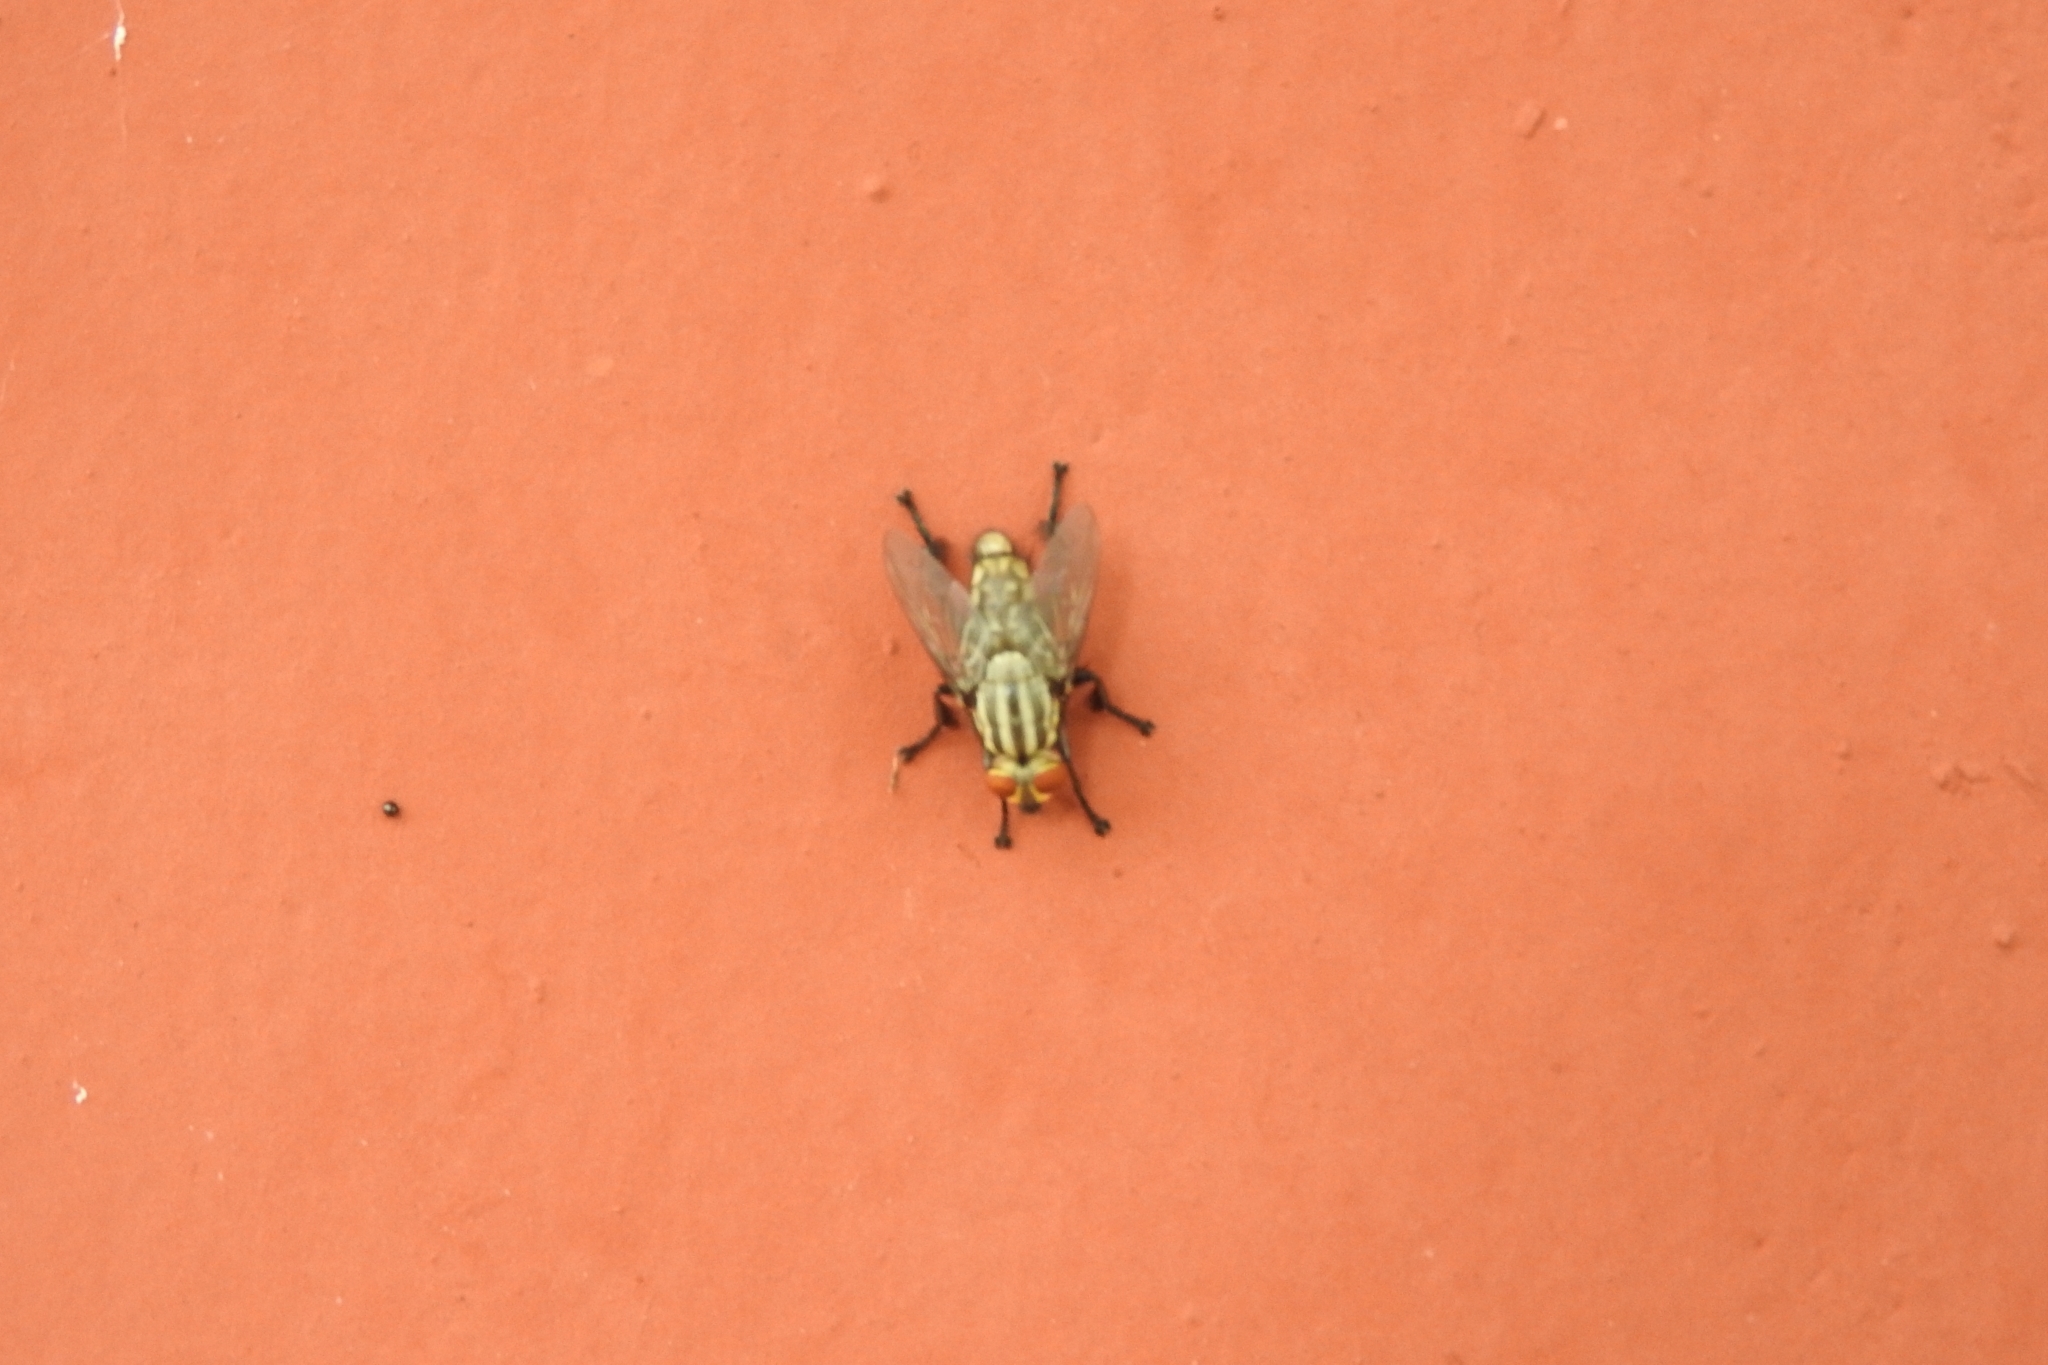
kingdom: Animalia
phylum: Arthropoda
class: Insecta
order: Diptera
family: Sarcophagidae
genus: Oxysarcodexia
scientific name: Oxysarcodexia varia
